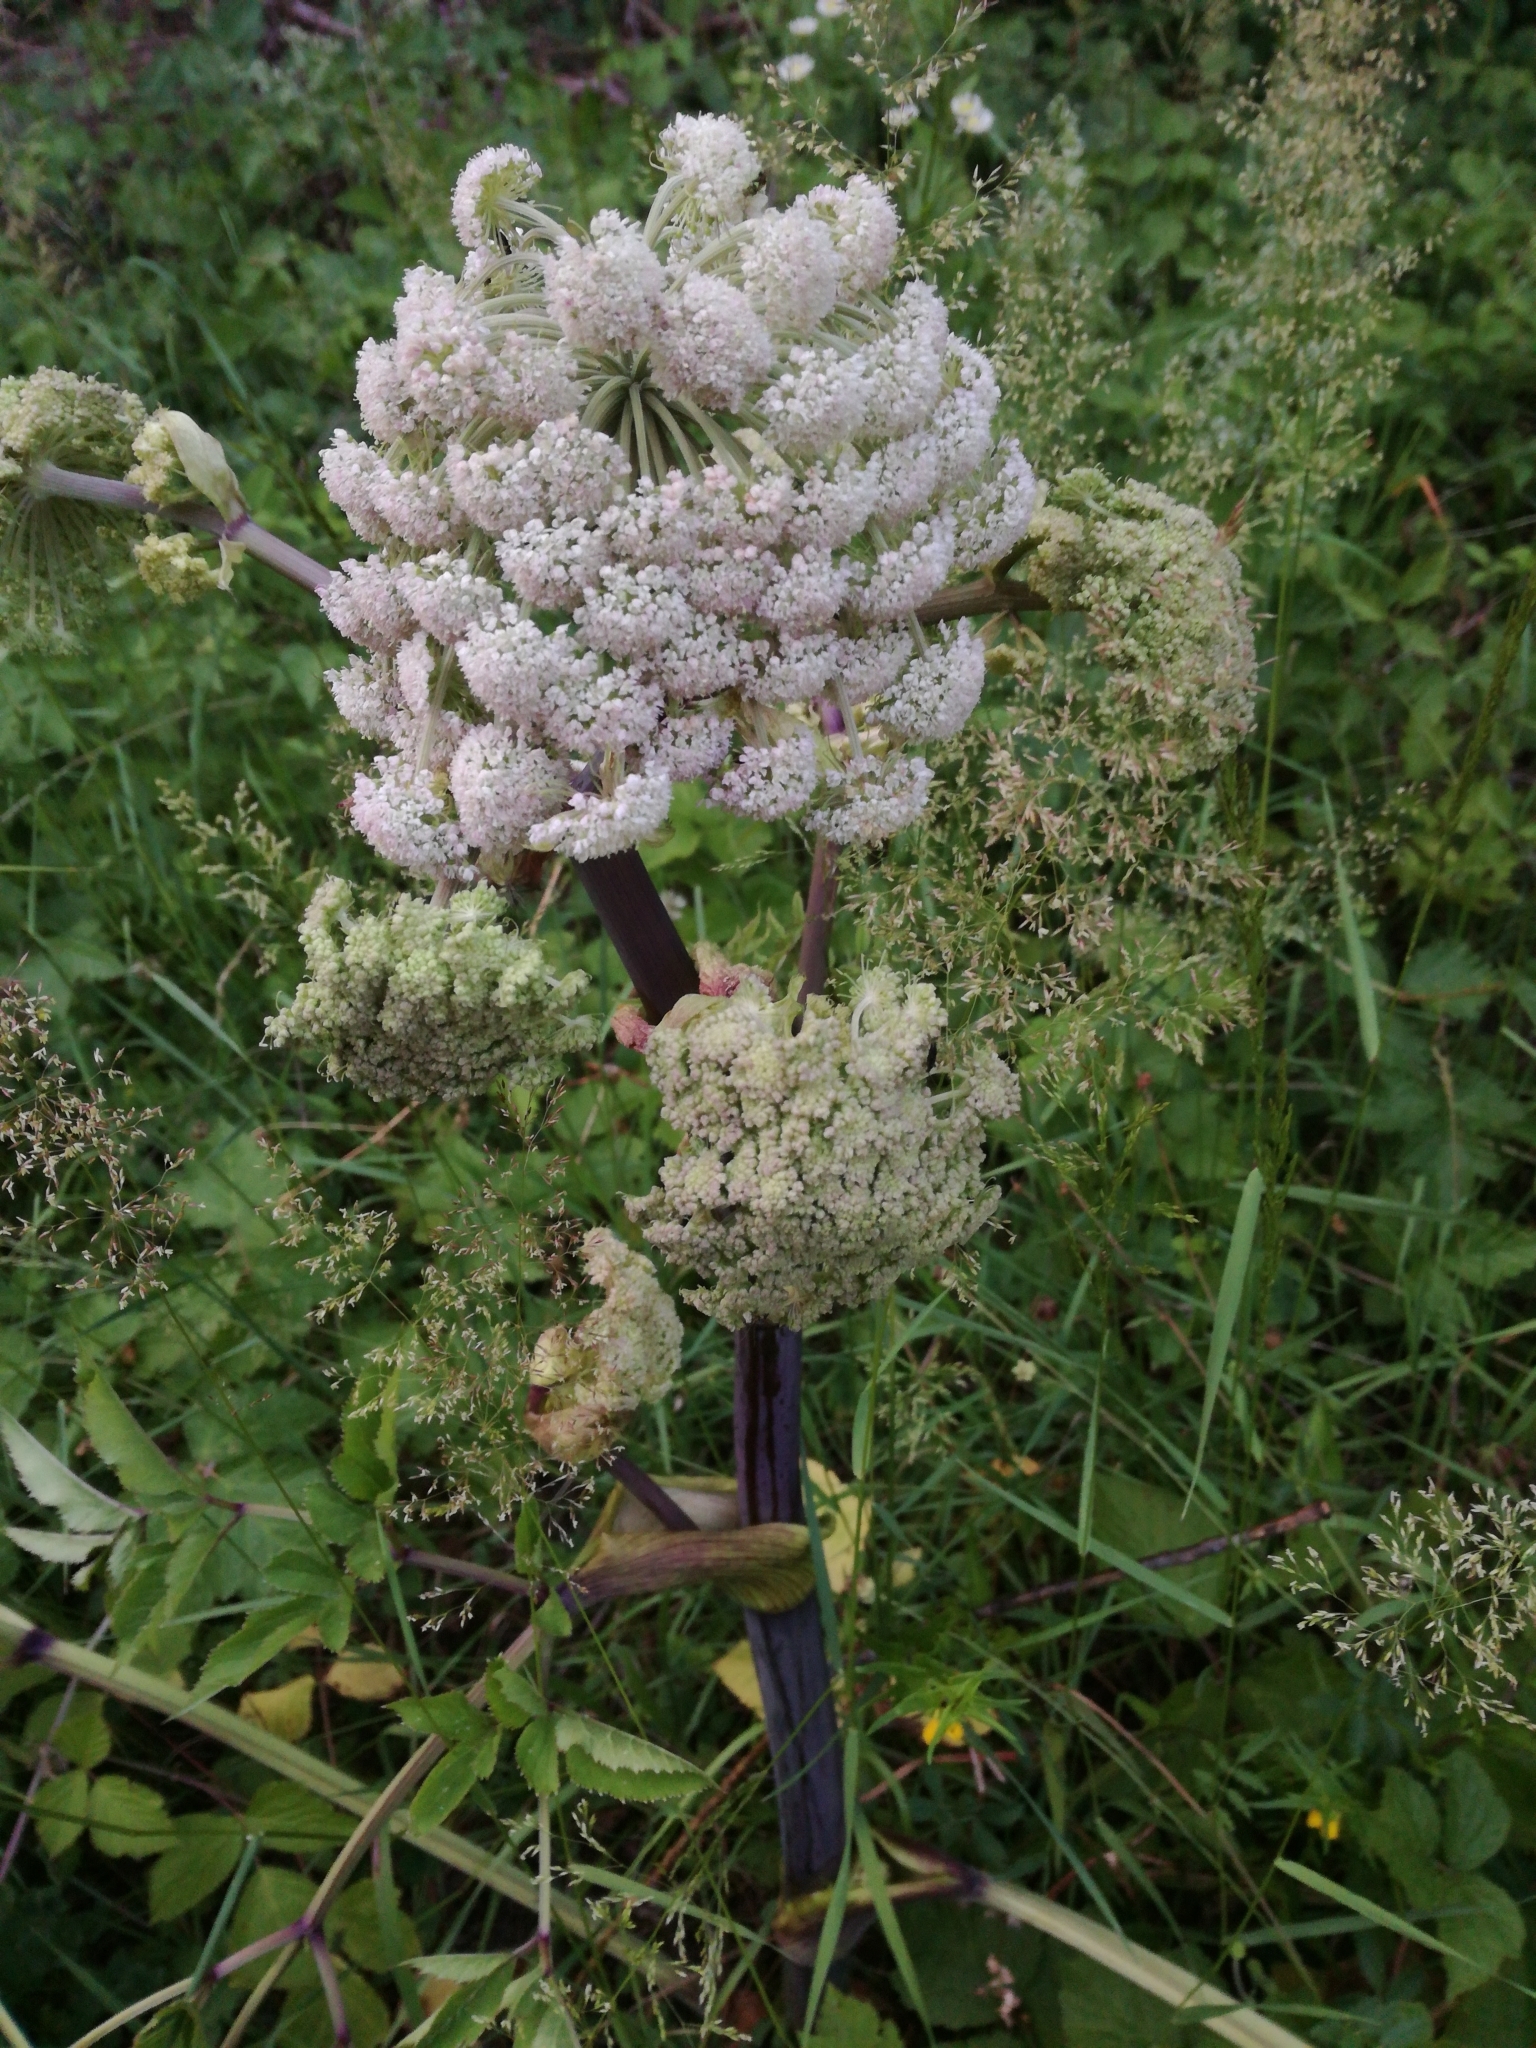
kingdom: Plantae
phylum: Tracheophyta
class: Magnoliopsida
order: Apiales
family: Apiaceae
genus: Angelica
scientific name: Angelica sylvestris
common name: Wild angelica
